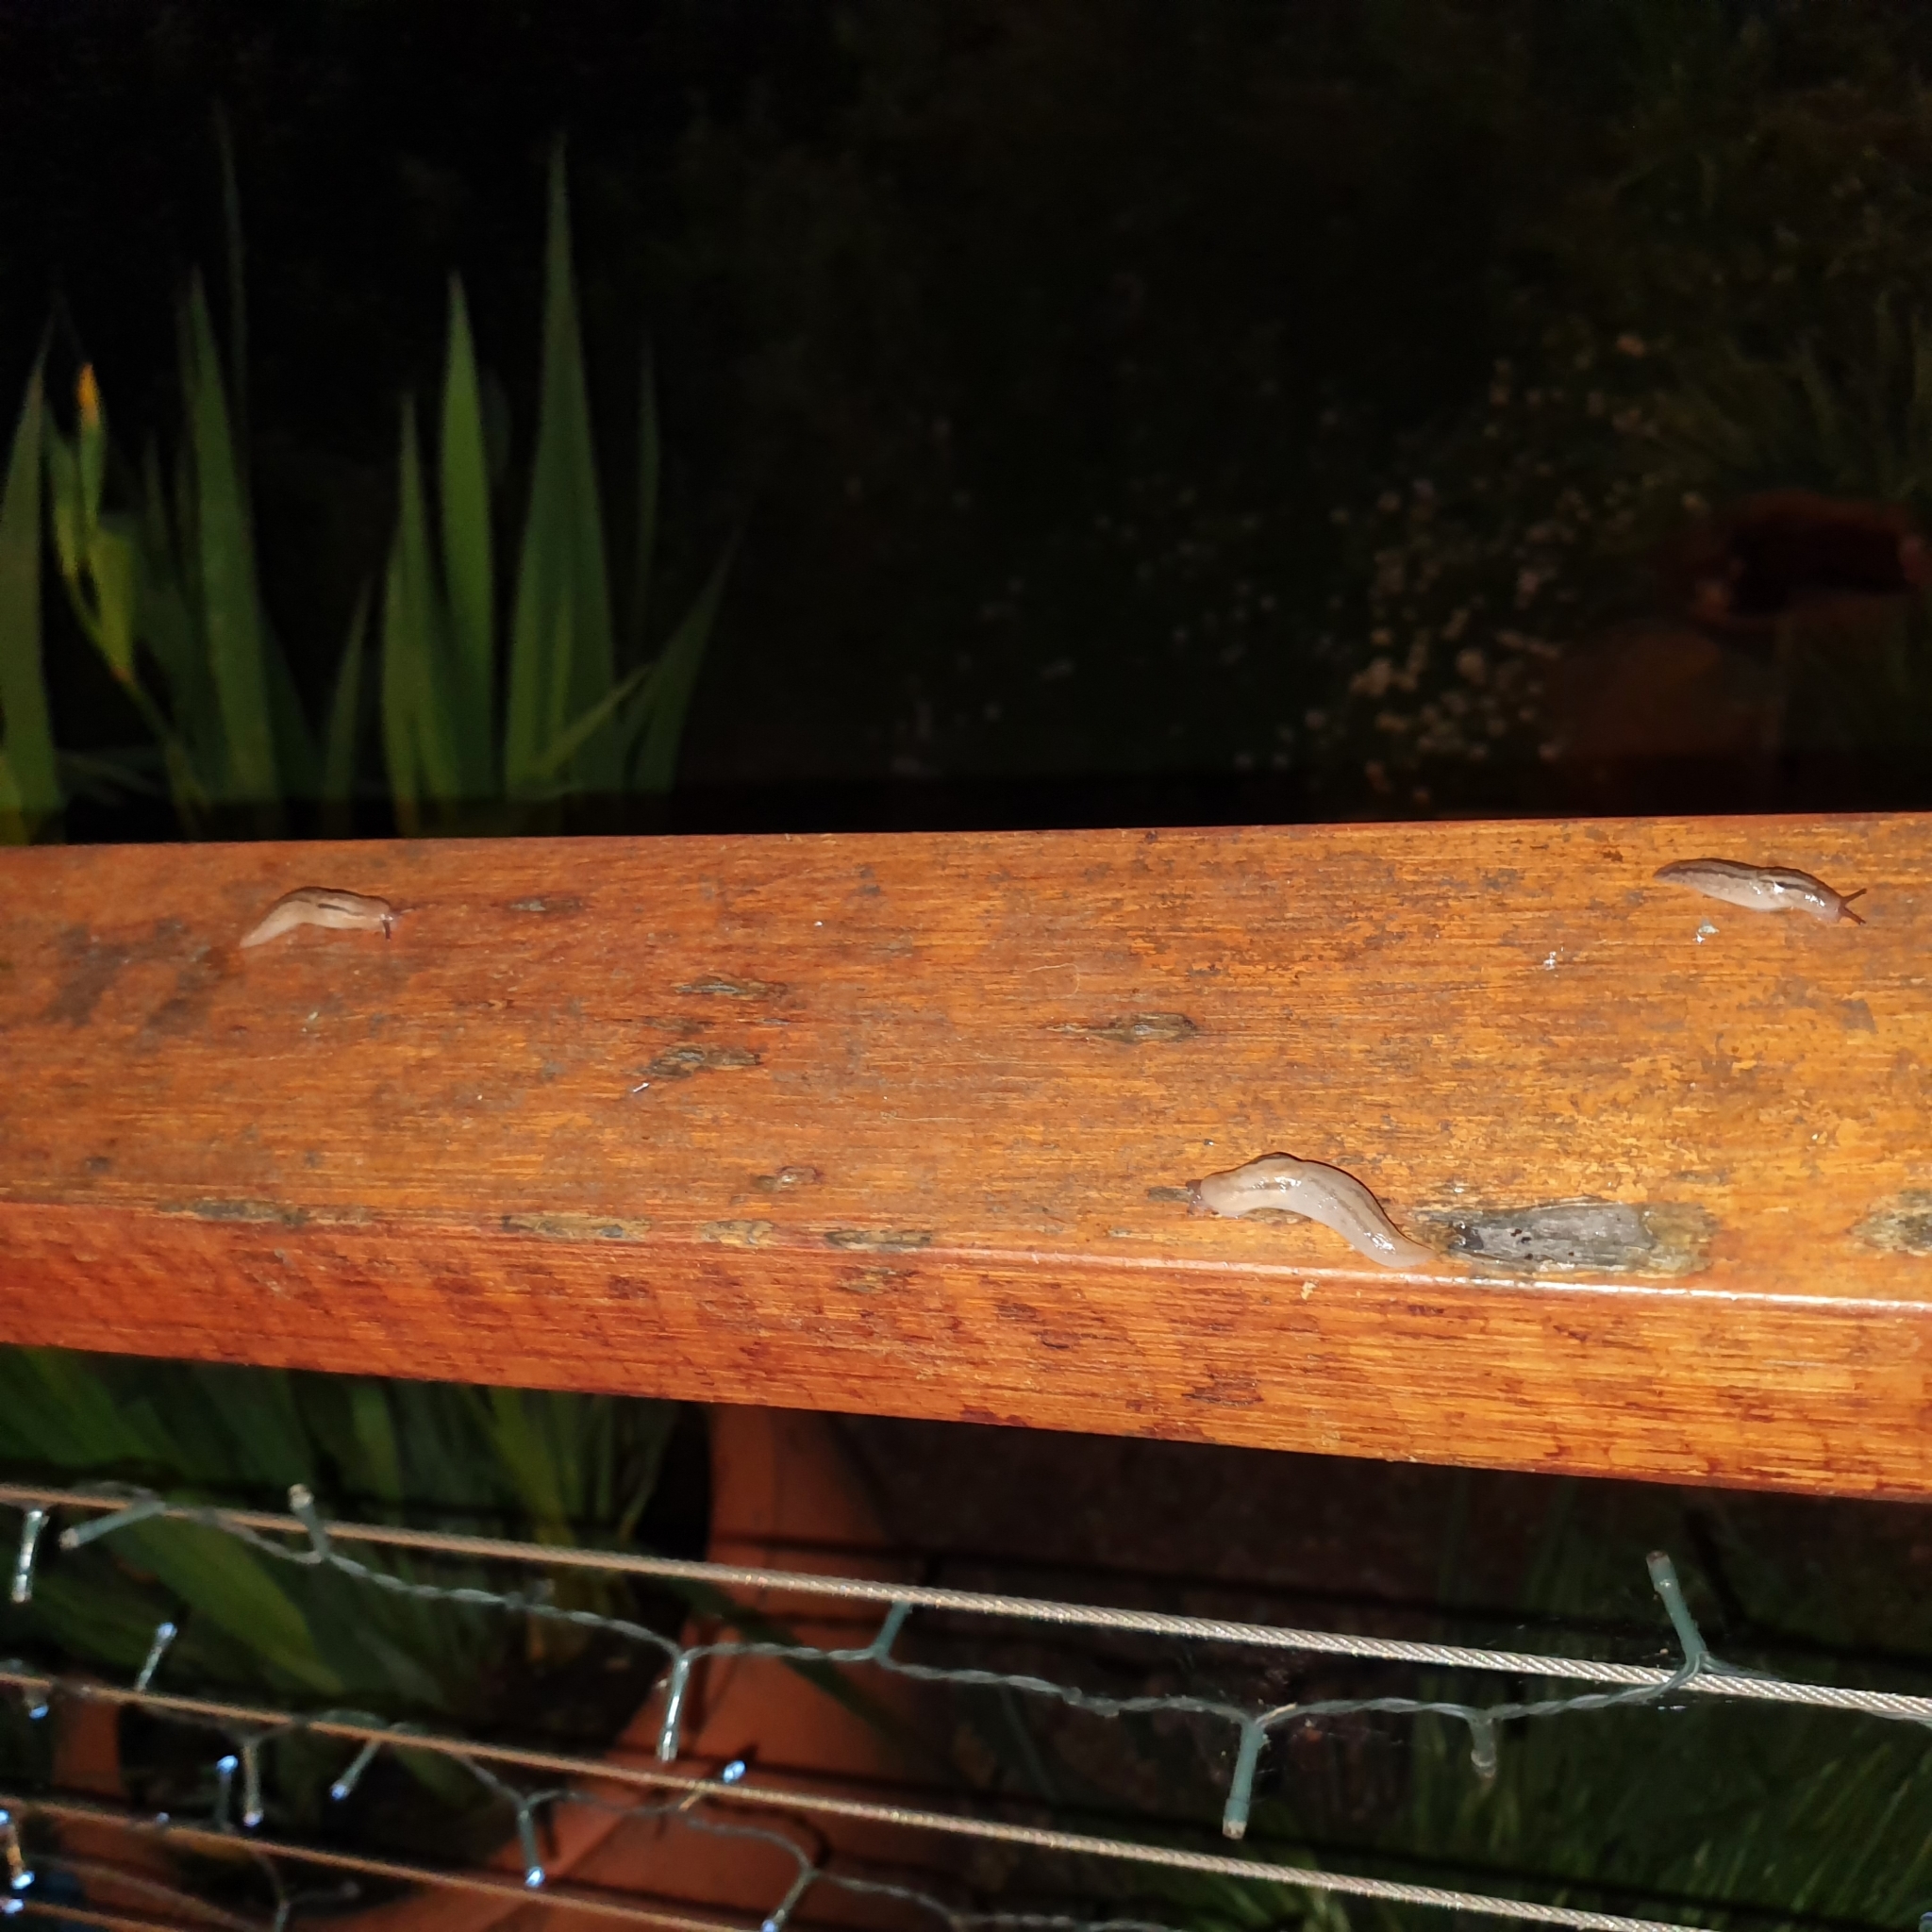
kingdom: Animalia
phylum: Mollusca
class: Gastropoda
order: Stylommatophora
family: Limacidae
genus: Ambigolimax
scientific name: Ambigolimax
